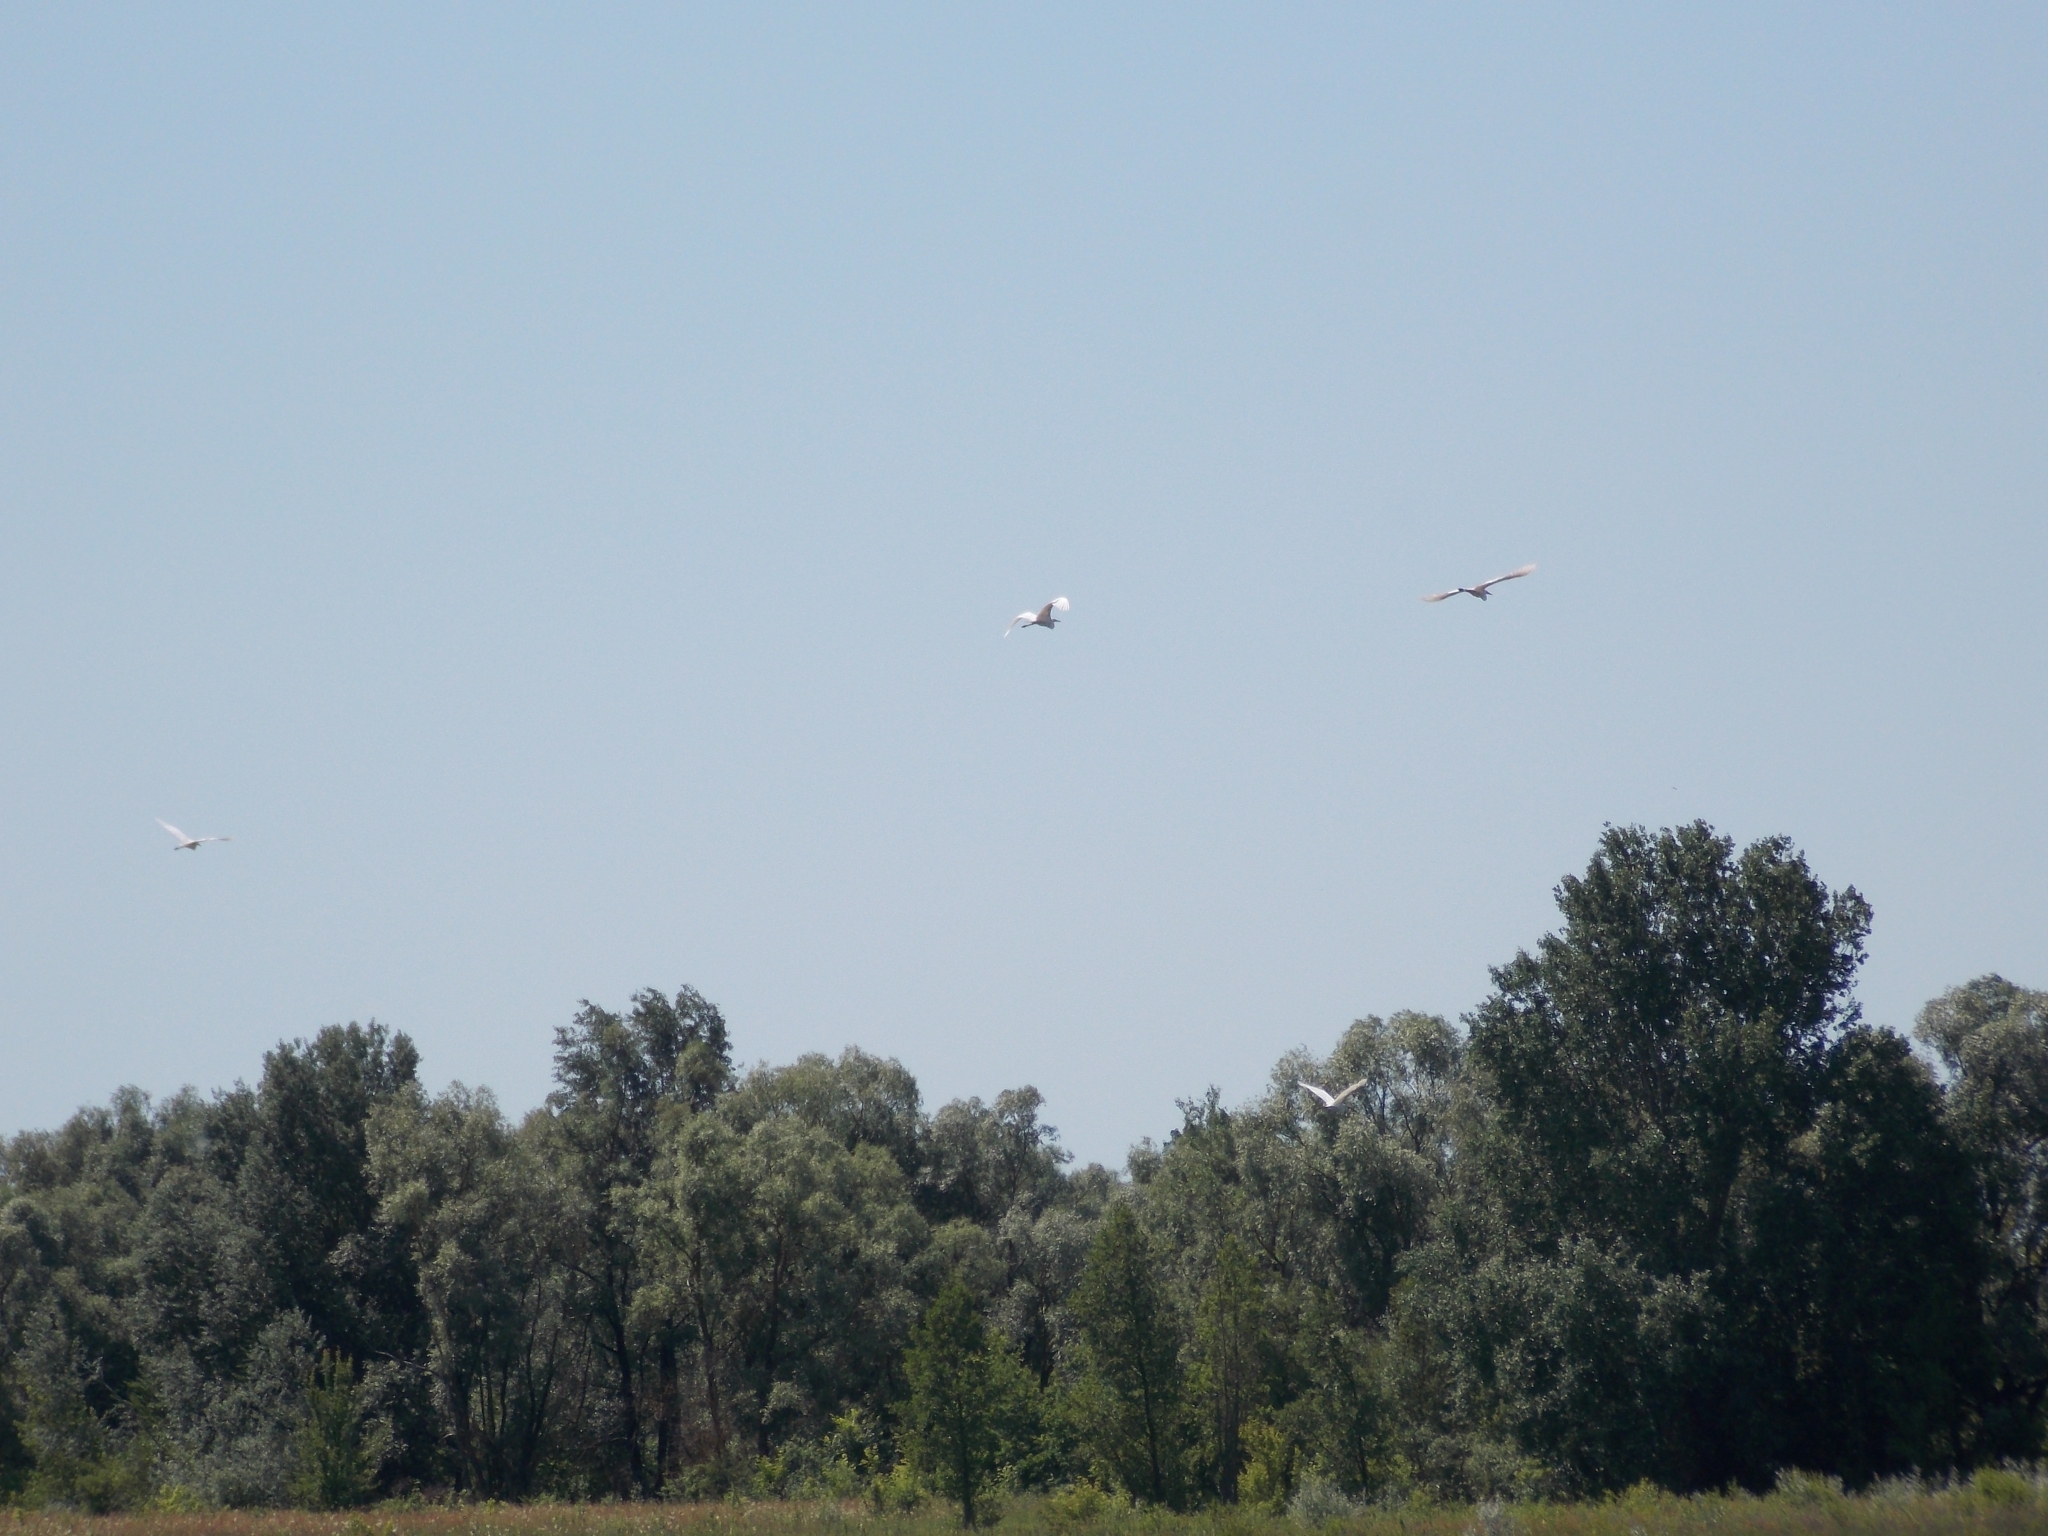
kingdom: Animalia
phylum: Chordata
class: Aves
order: Pelecaniformes
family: Ardeidae
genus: Ardea
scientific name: Ardea alba
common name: Great egret
